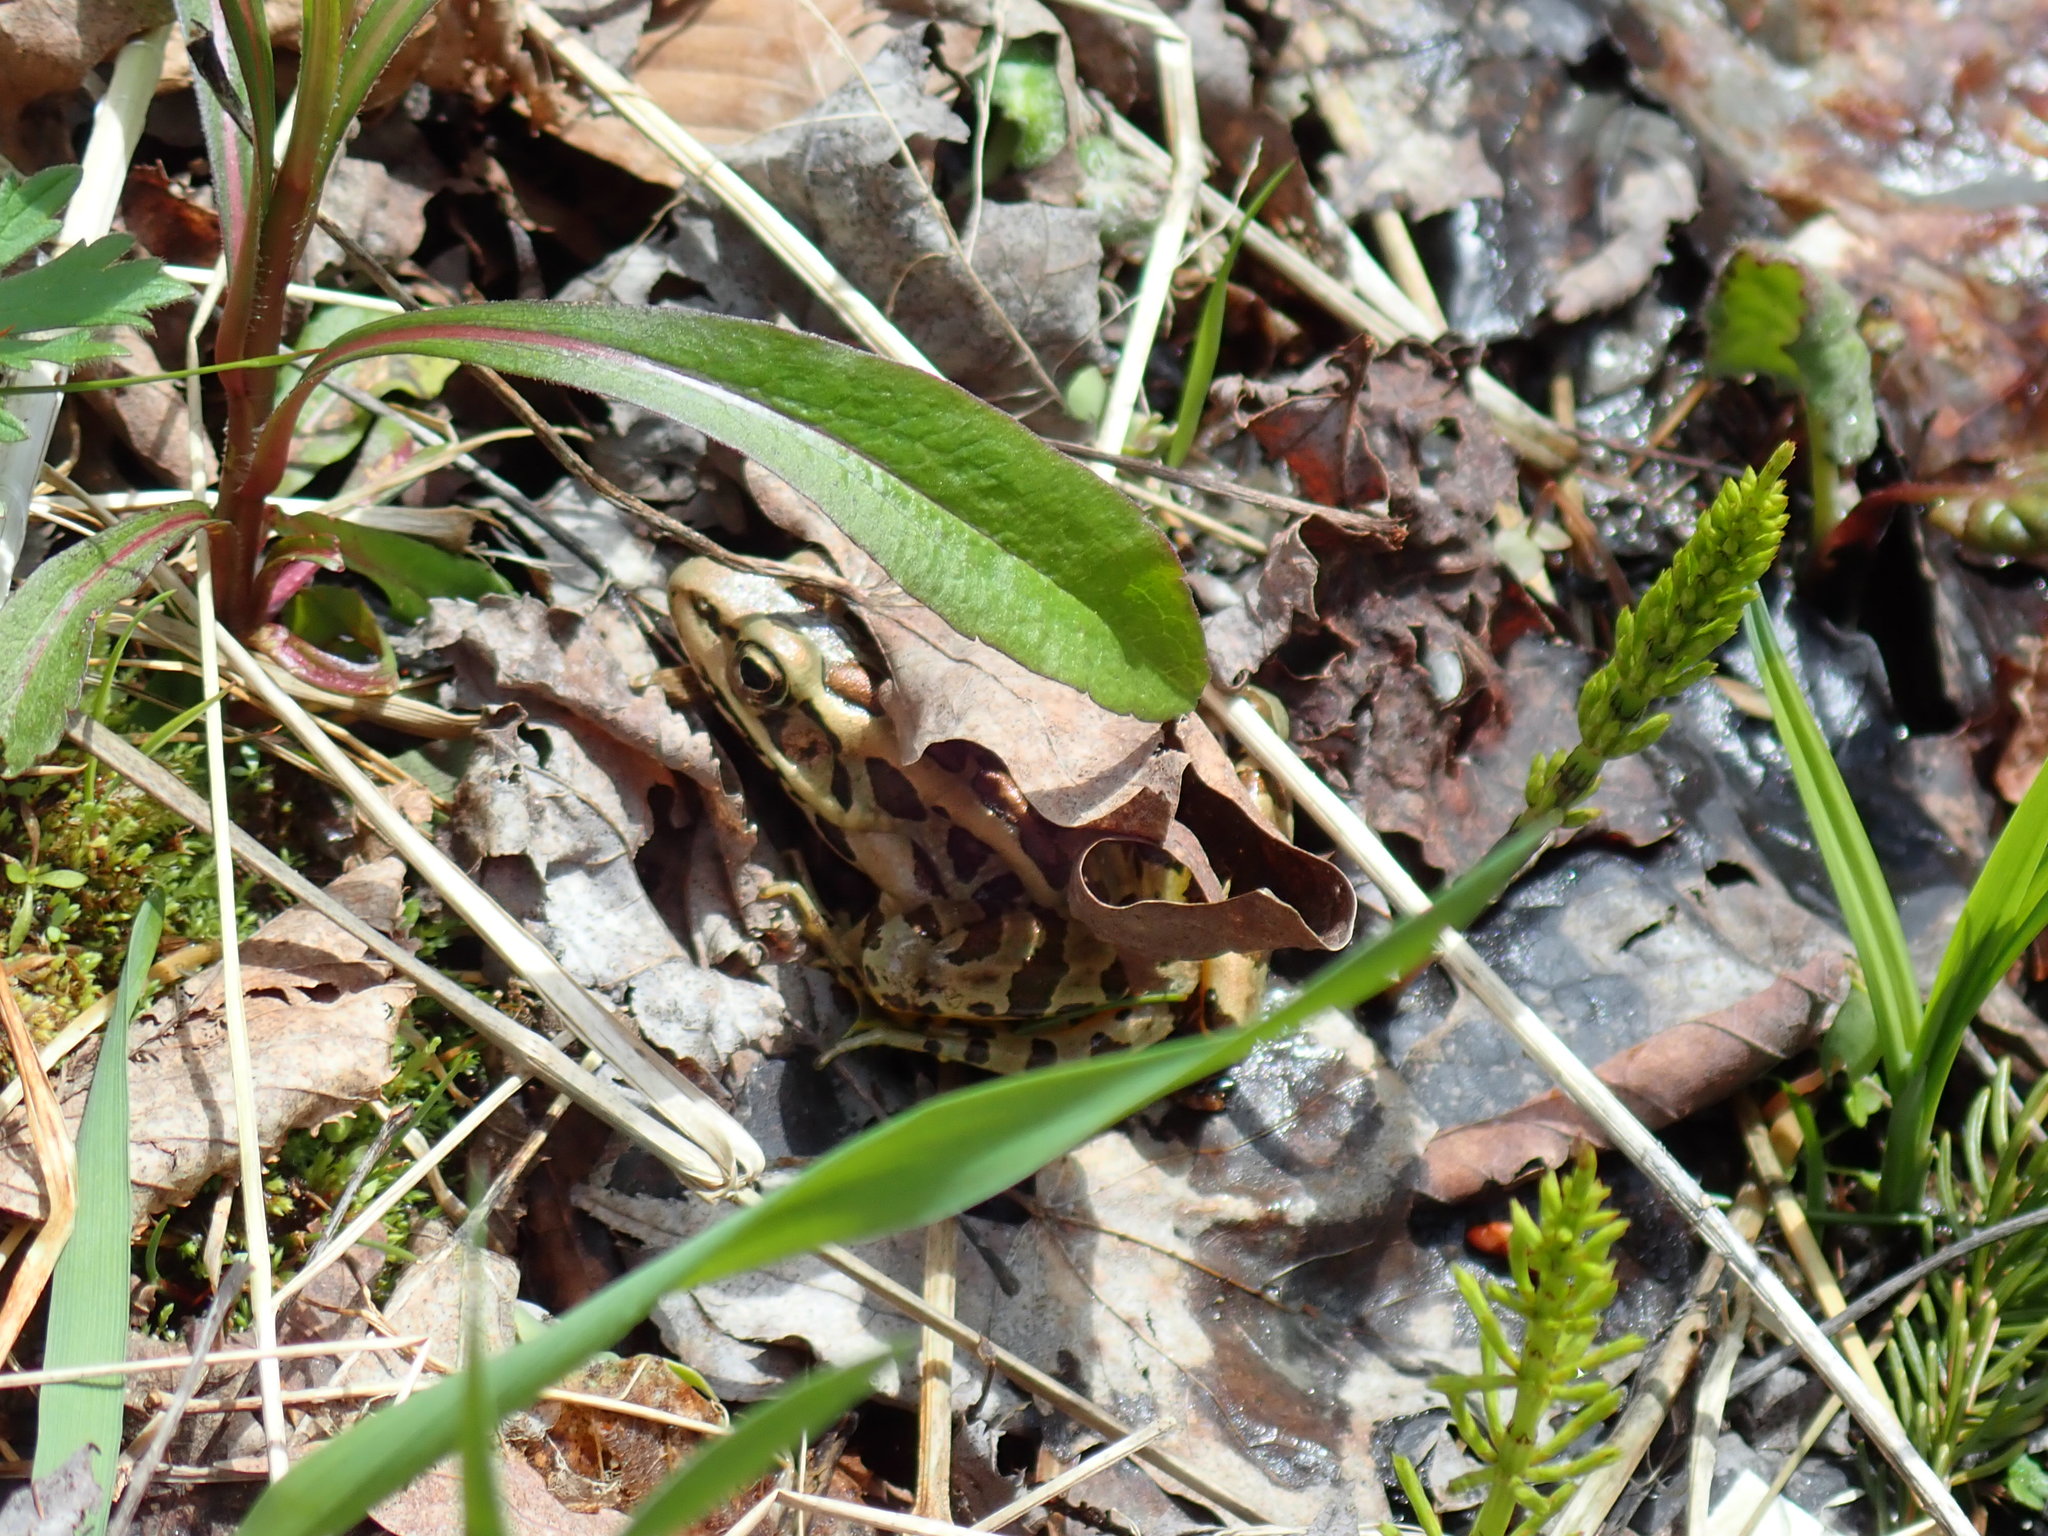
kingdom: Animalia
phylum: Chordata
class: Amphibia
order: Anura
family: Ranidae
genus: Lithobates
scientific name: Lithobates palustris
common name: Pickerel frog
